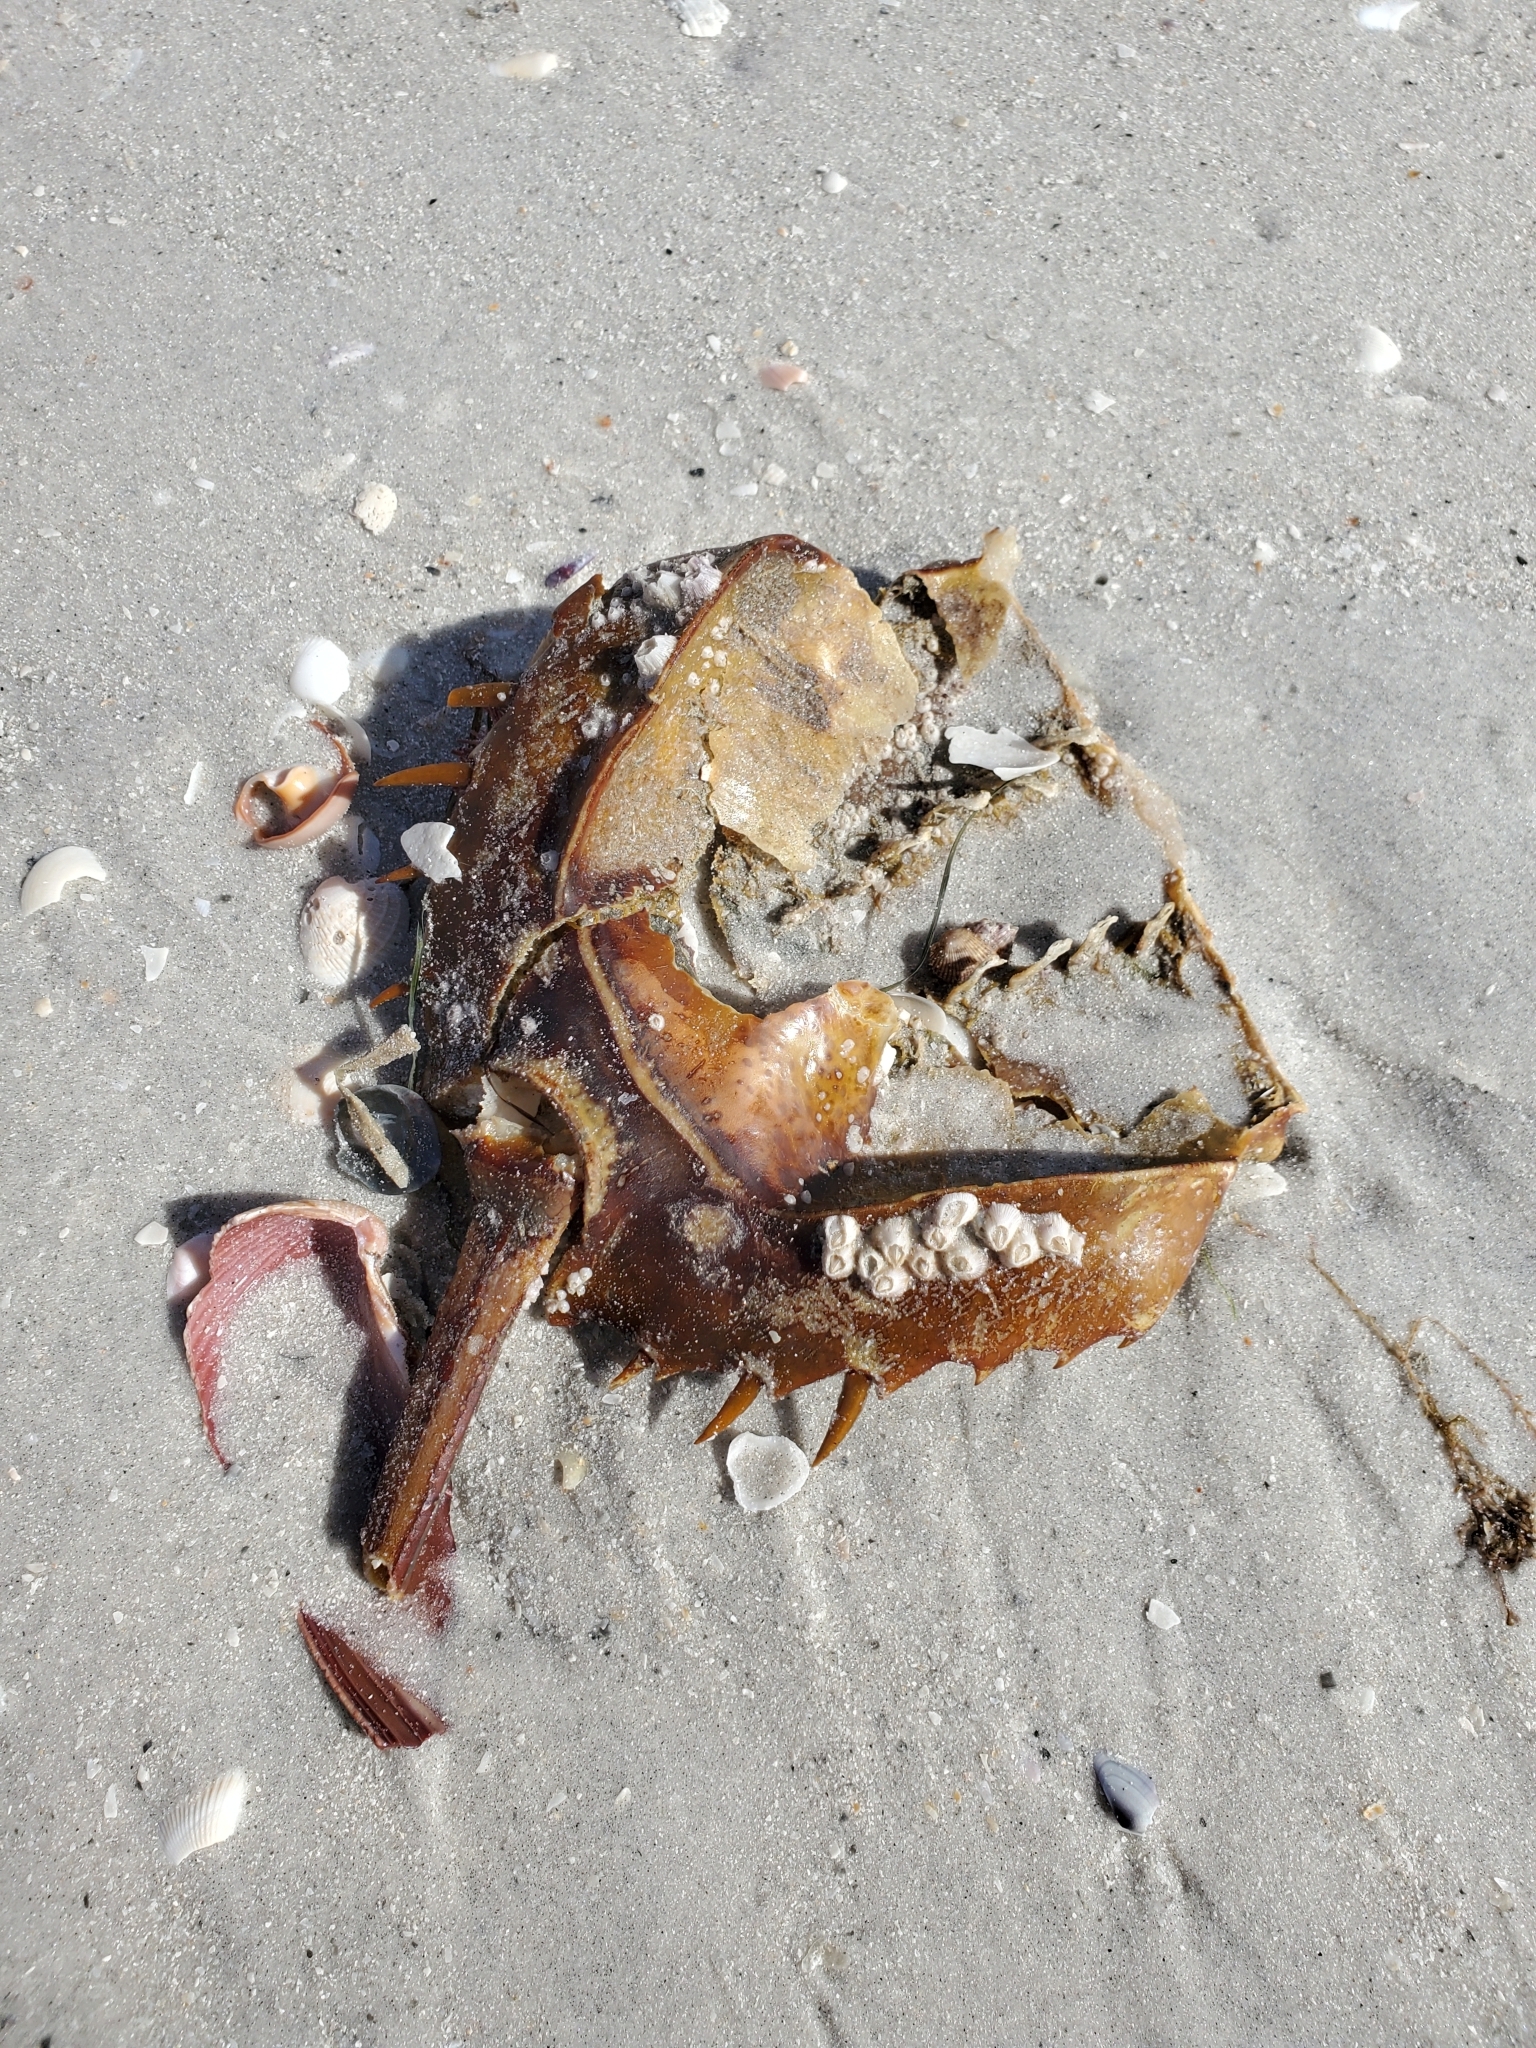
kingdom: Animalia
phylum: Arthropoda
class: Merostomata
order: Xiphosurida
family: Limulidae
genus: Limulus
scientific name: Limulus polyphemus
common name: Horseshoe crab
